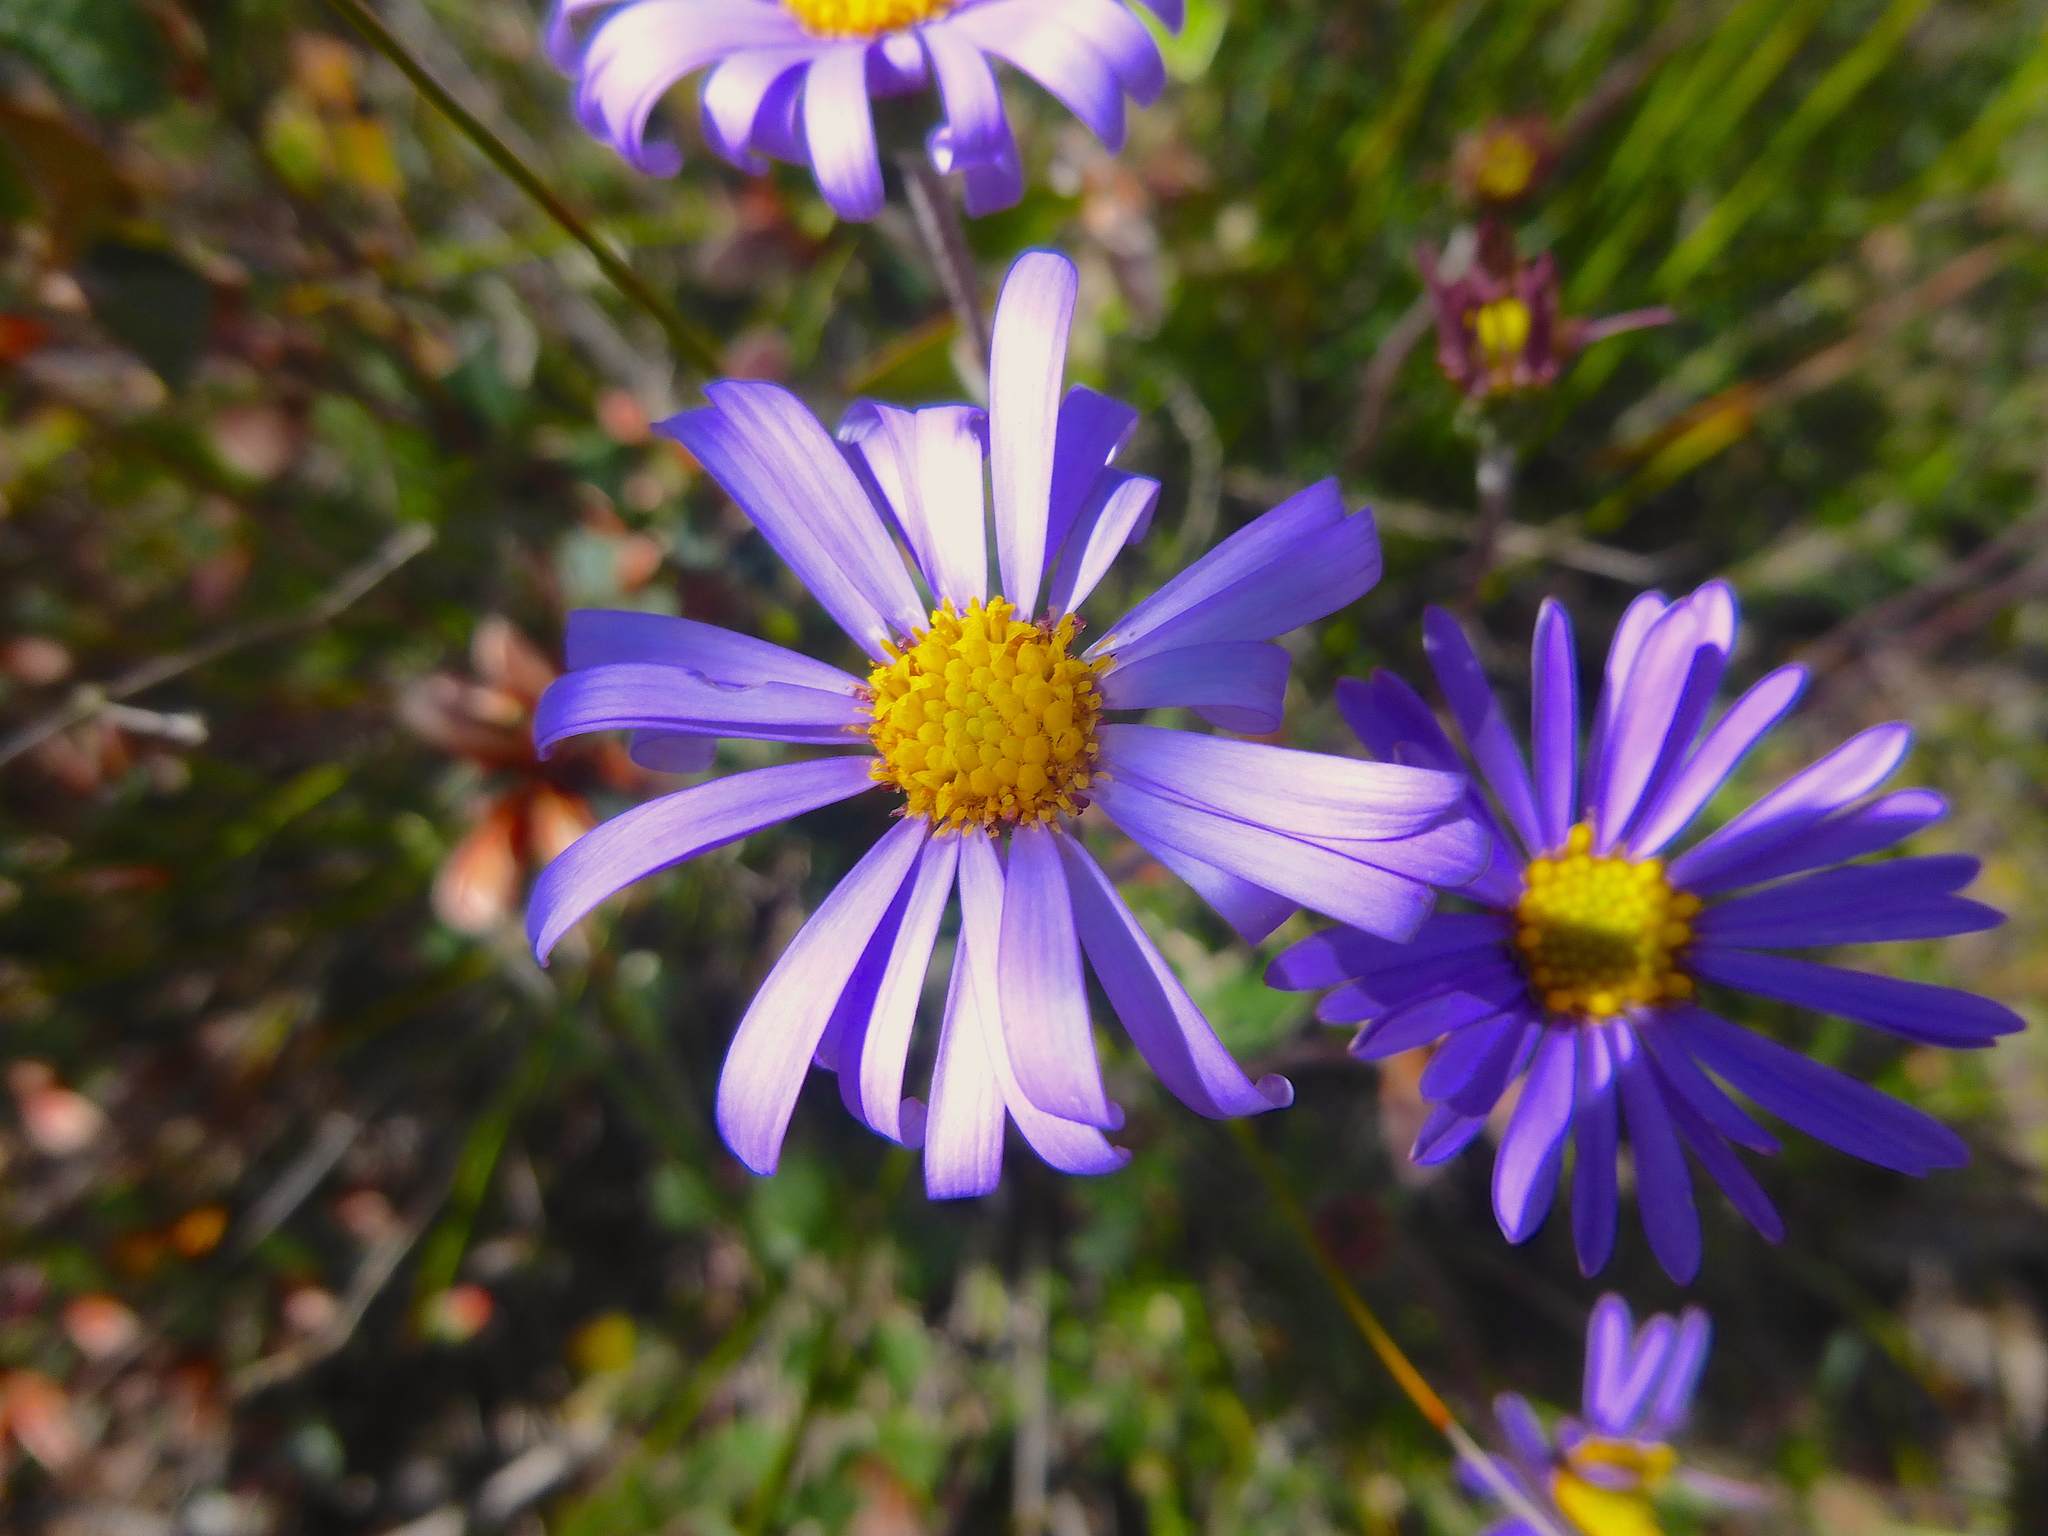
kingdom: Plantae
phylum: Tracheophyta
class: Magnoliopsida
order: Asterales
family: Asteraceae
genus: Olearia
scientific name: Olearia ciliata
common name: Fringed daisybush
